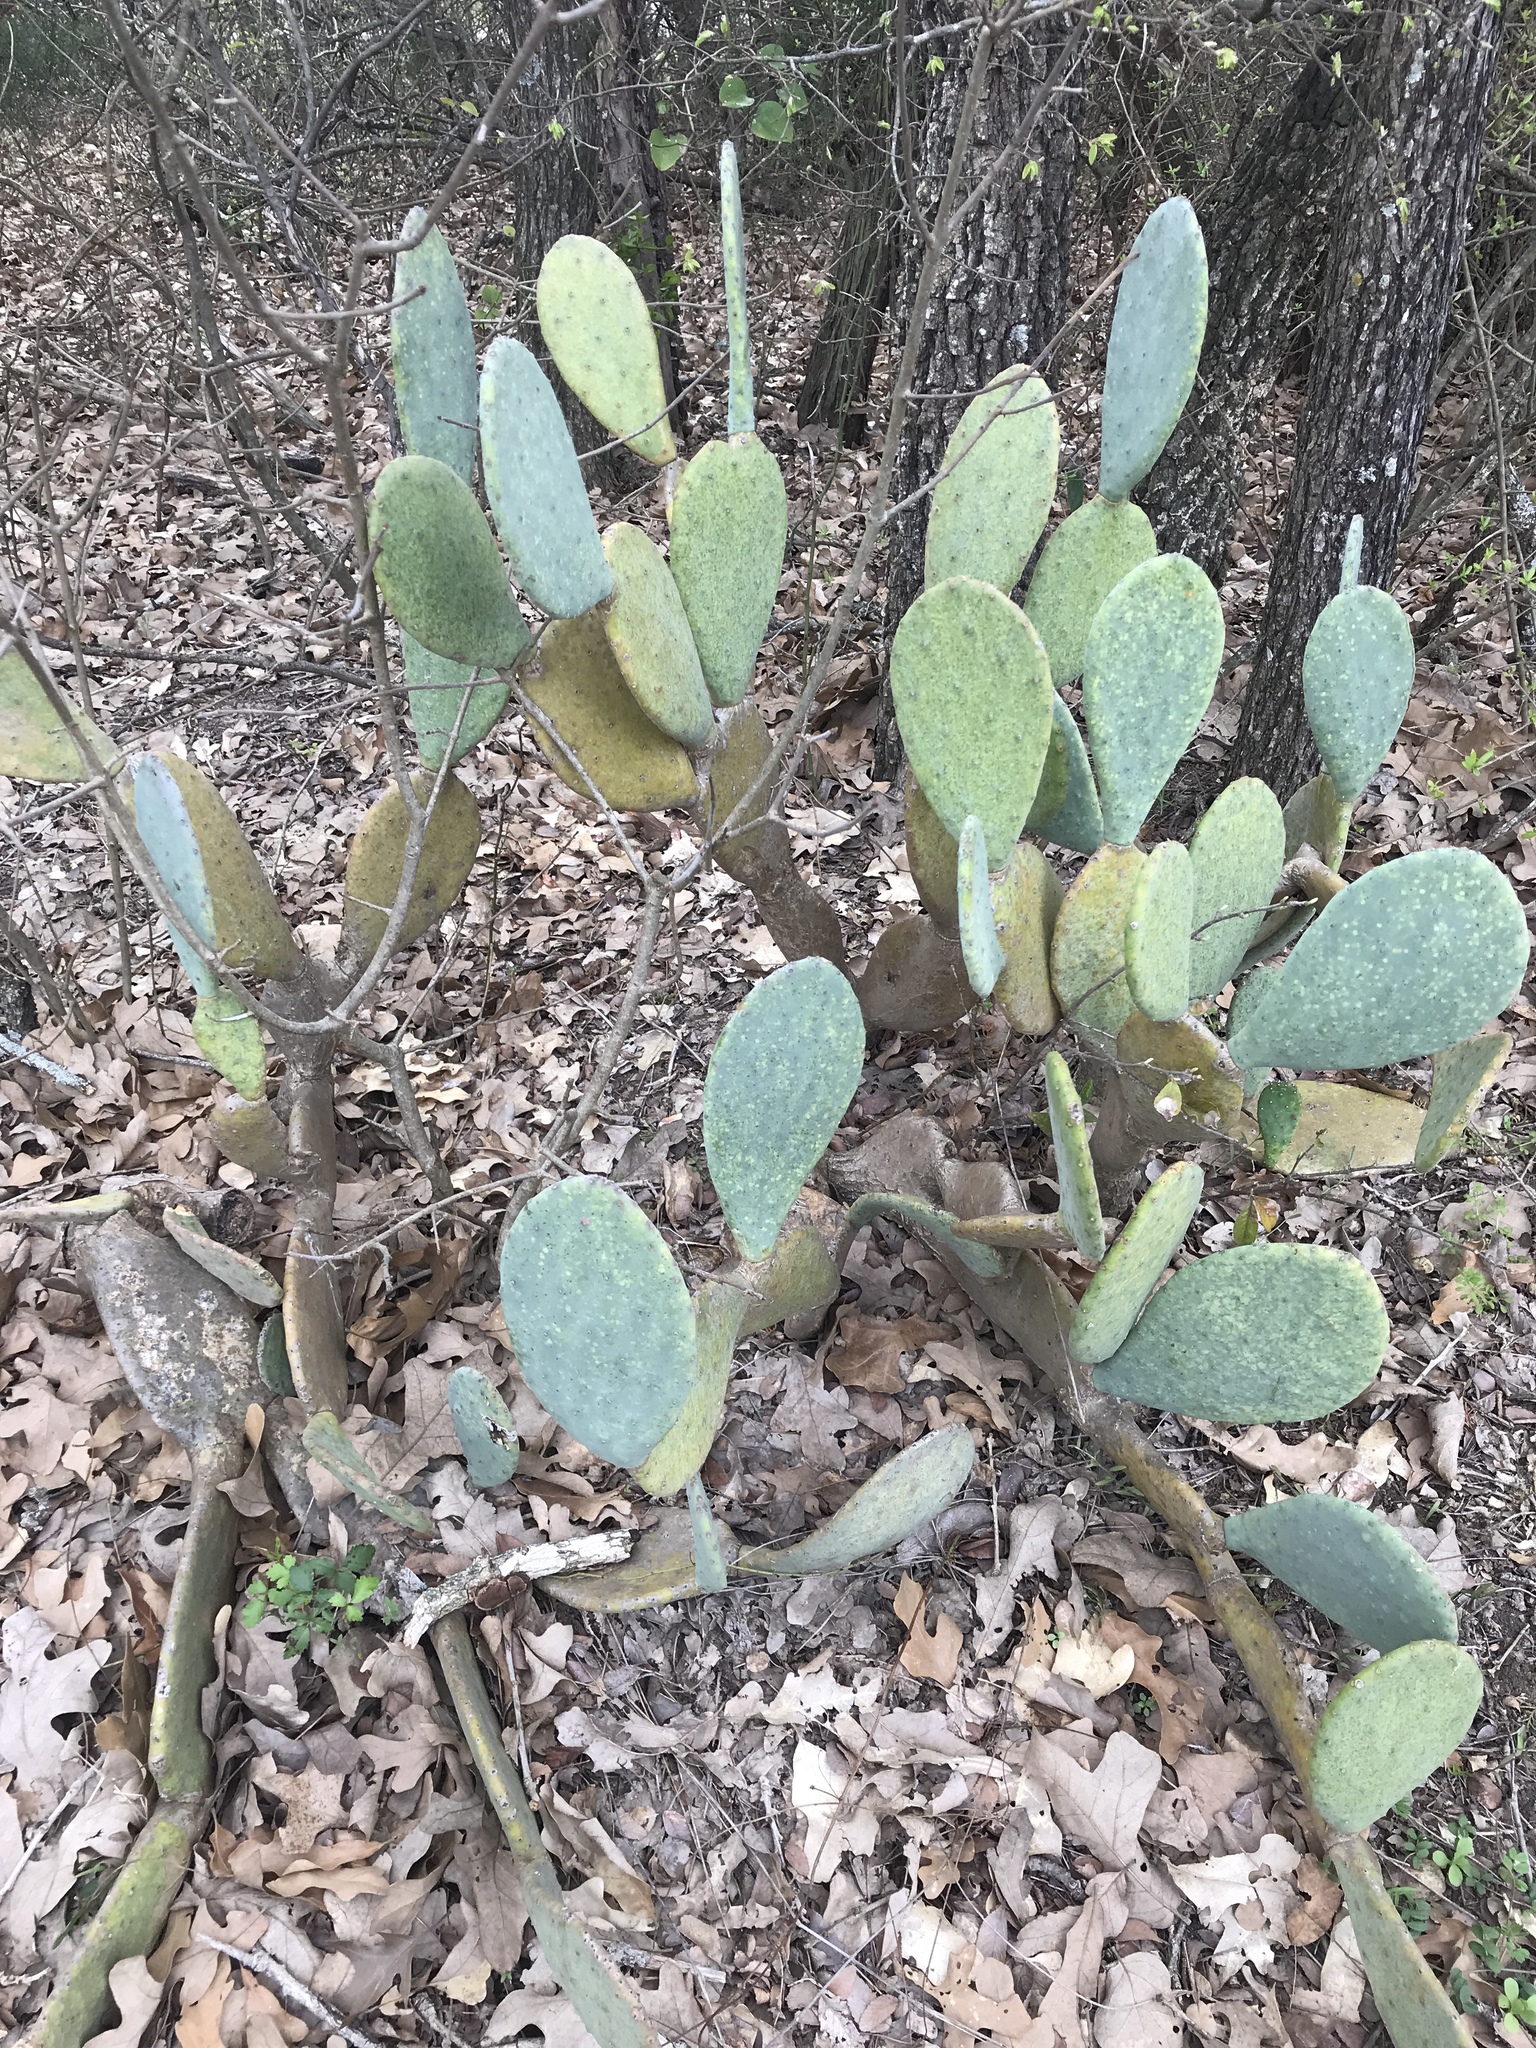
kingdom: Plantae
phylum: Tracheophyta
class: Magnoliopsida
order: Caryophyllales
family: Cactaceae
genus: Opuntia
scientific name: Opuntia engelmannii
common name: Cactus-apple
